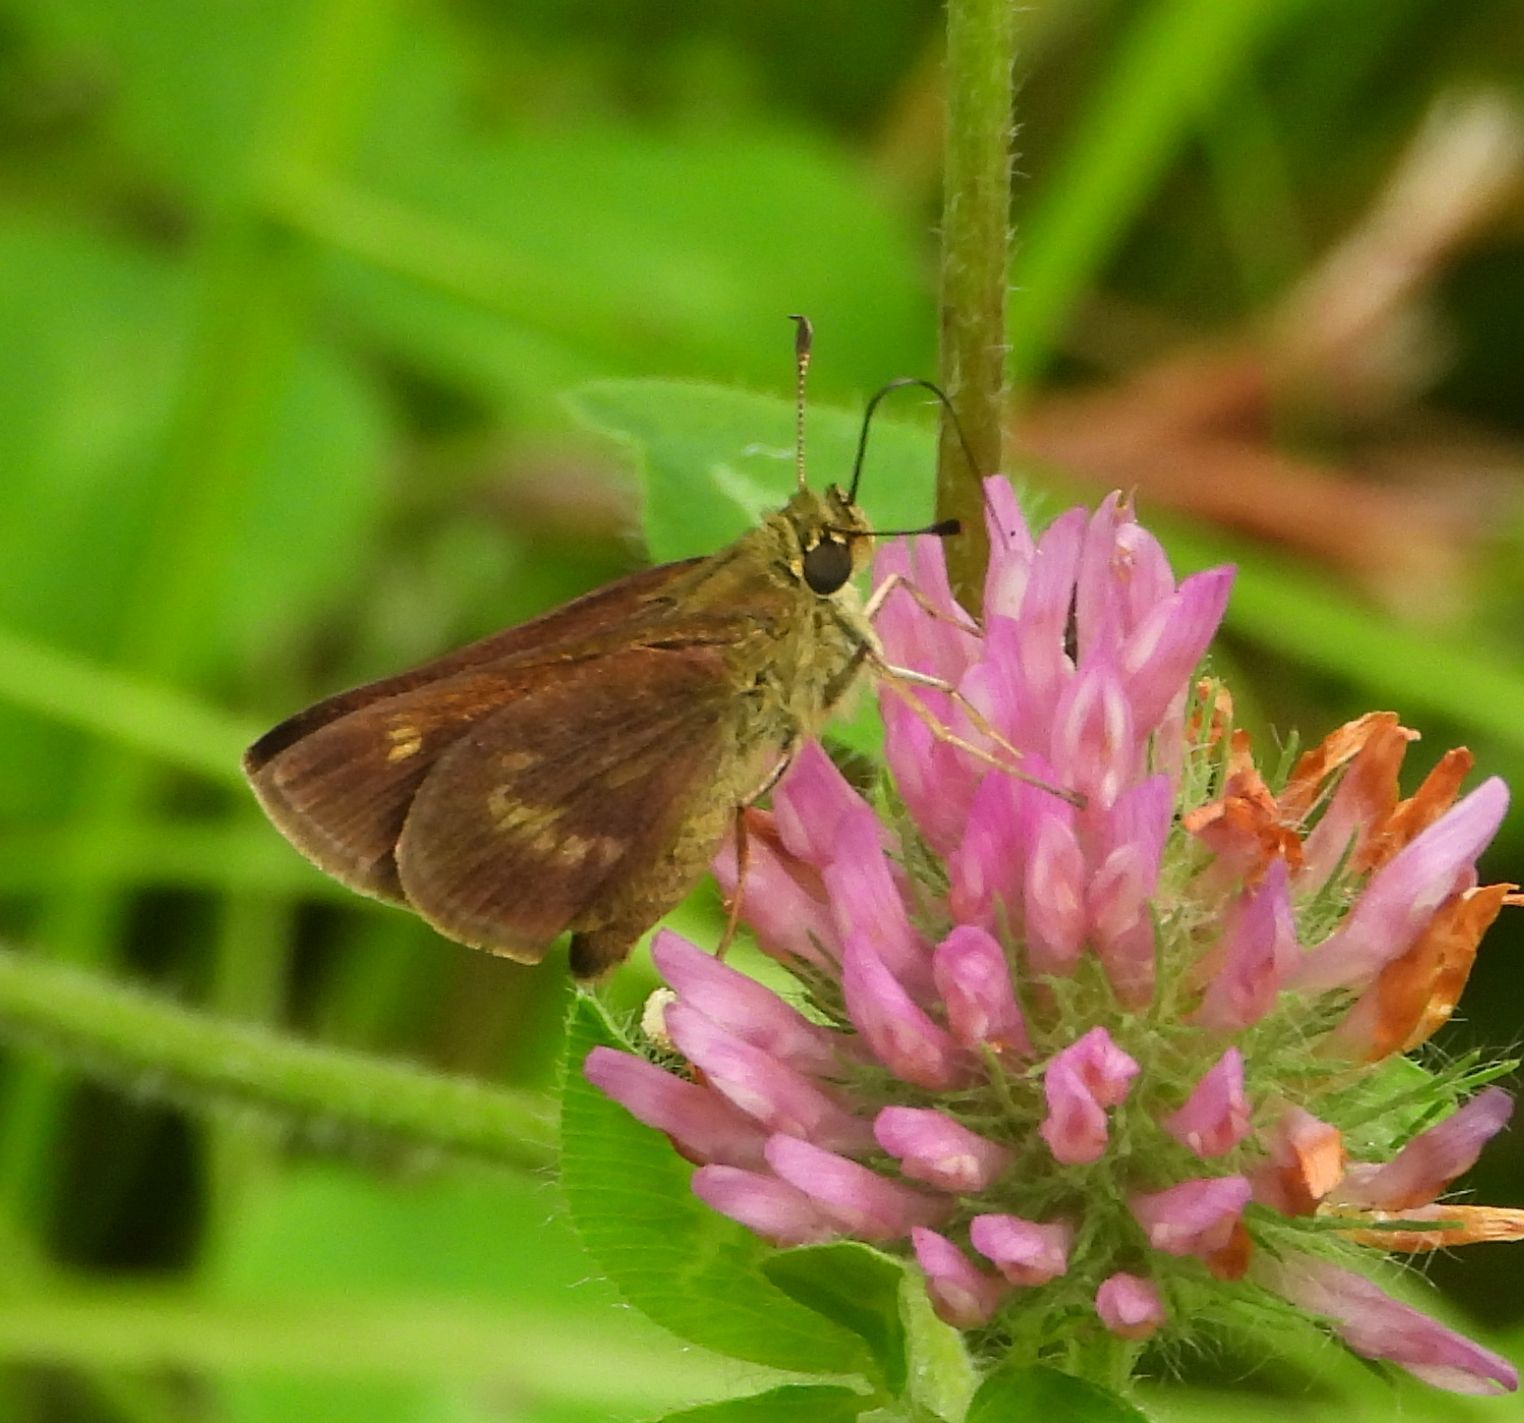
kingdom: Animalia
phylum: Arthropoda
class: Insecta
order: Lepidoptera
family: Hesperiidae
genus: Polites
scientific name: Polites egeremet
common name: Northern broken-dash
